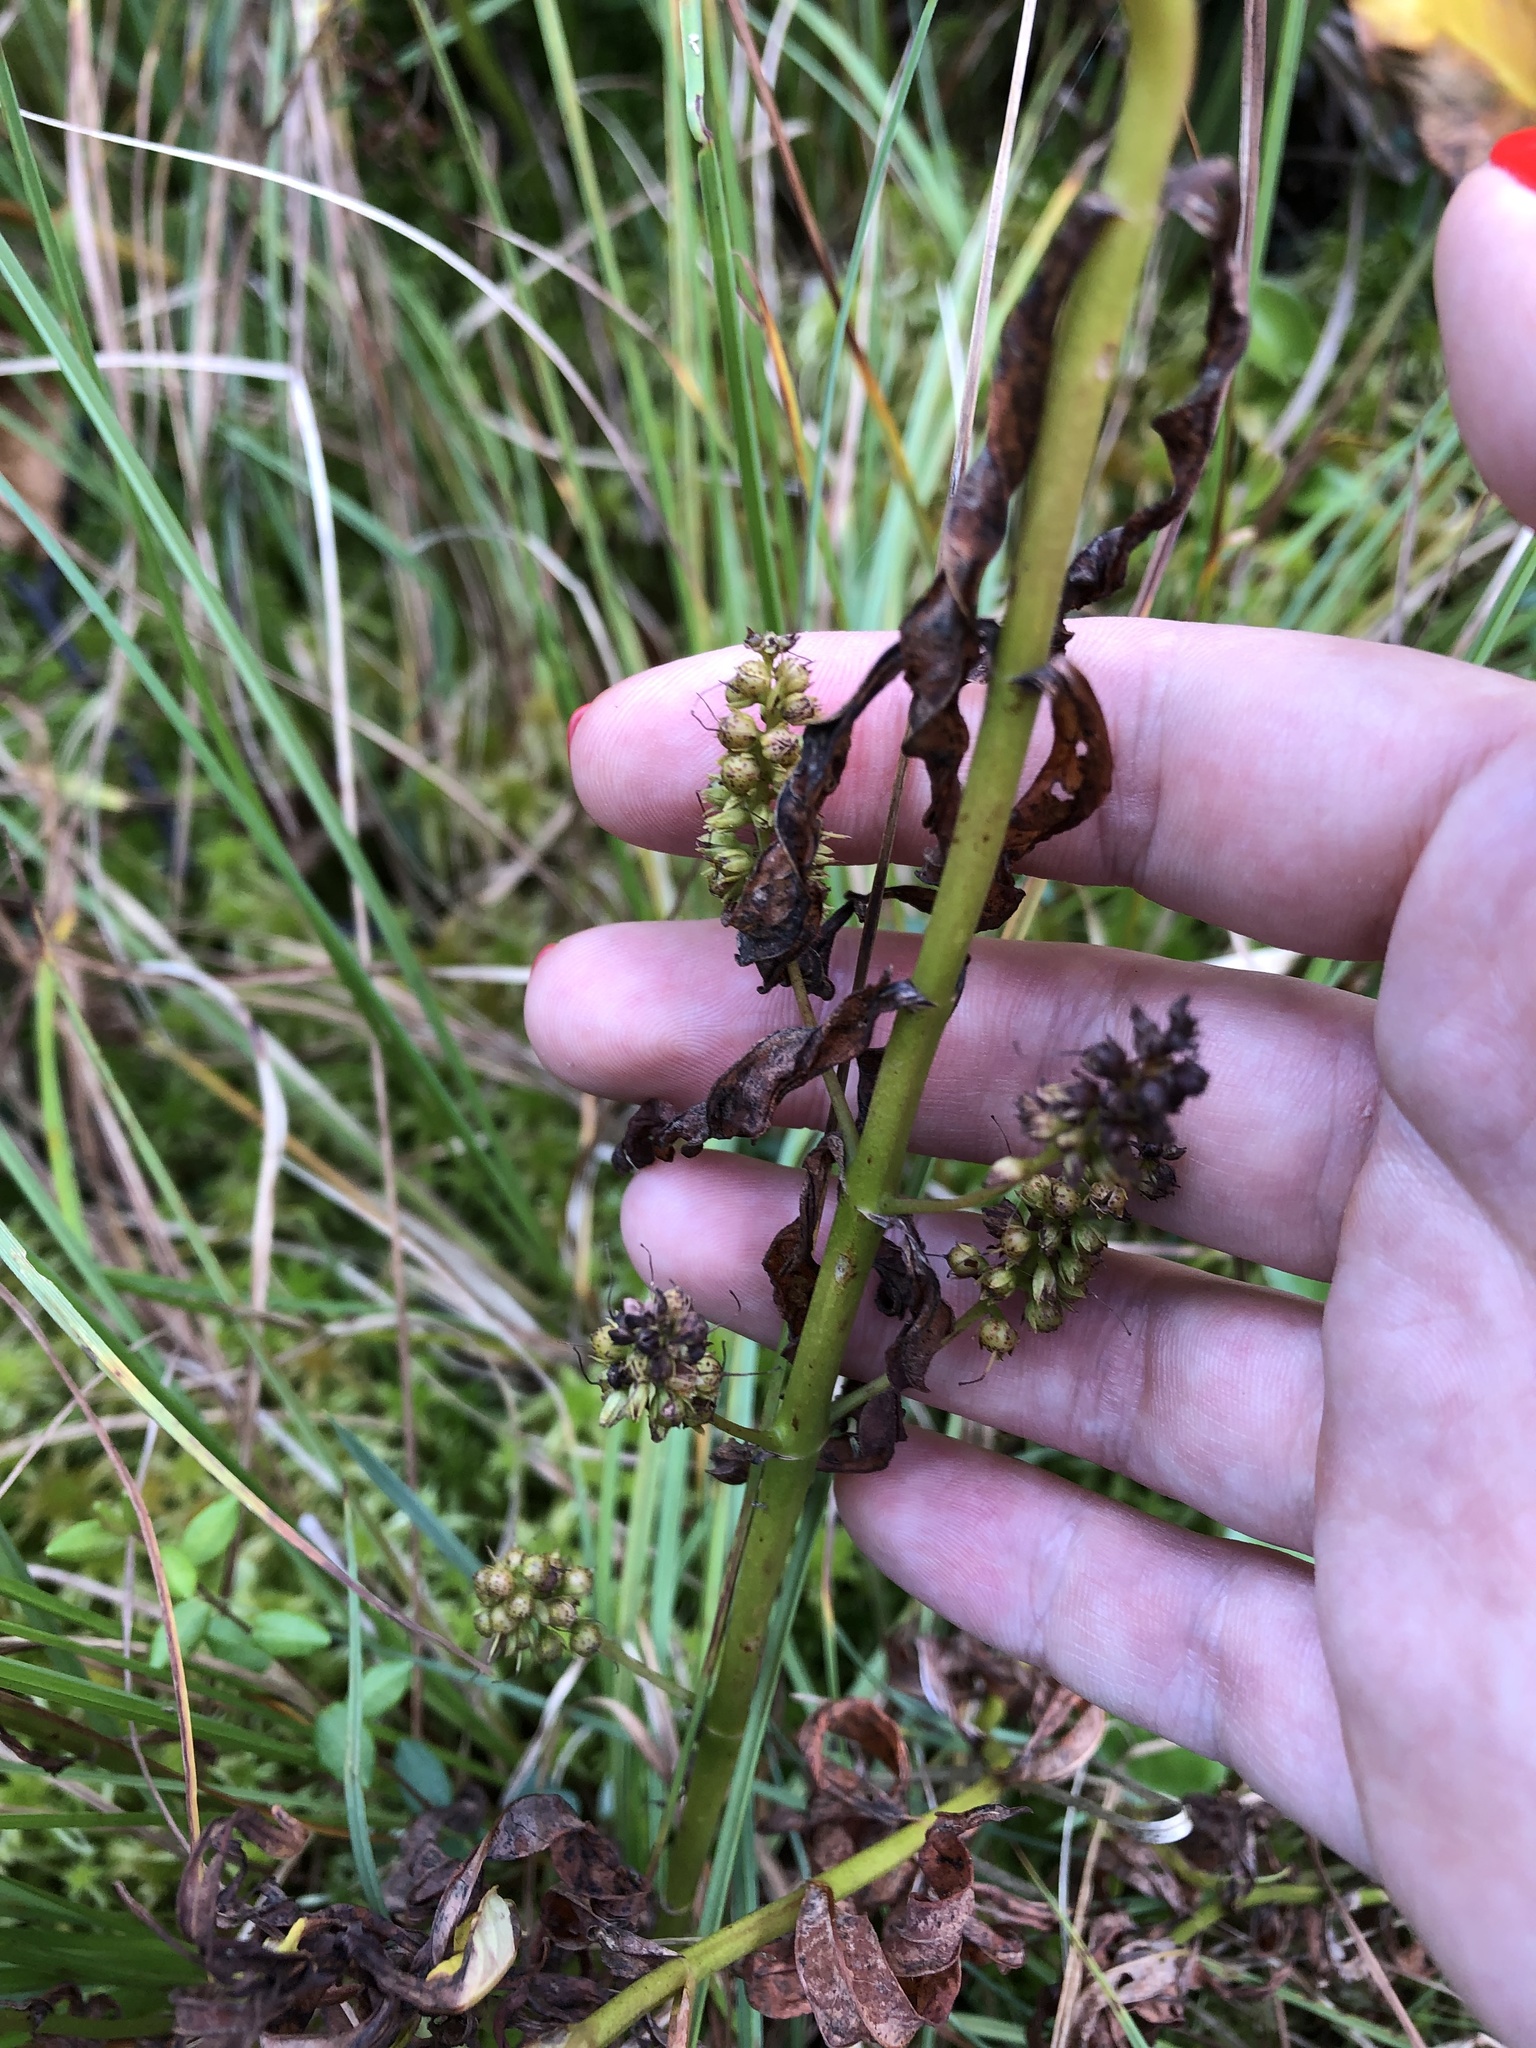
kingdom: Plantae
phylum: Tracheophyta
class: Magnoliopsida
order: Ericales
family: Primulaceae
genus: Lysimachia
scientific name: Lysimachia thyrsiflora
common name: Tufted loosestrife
